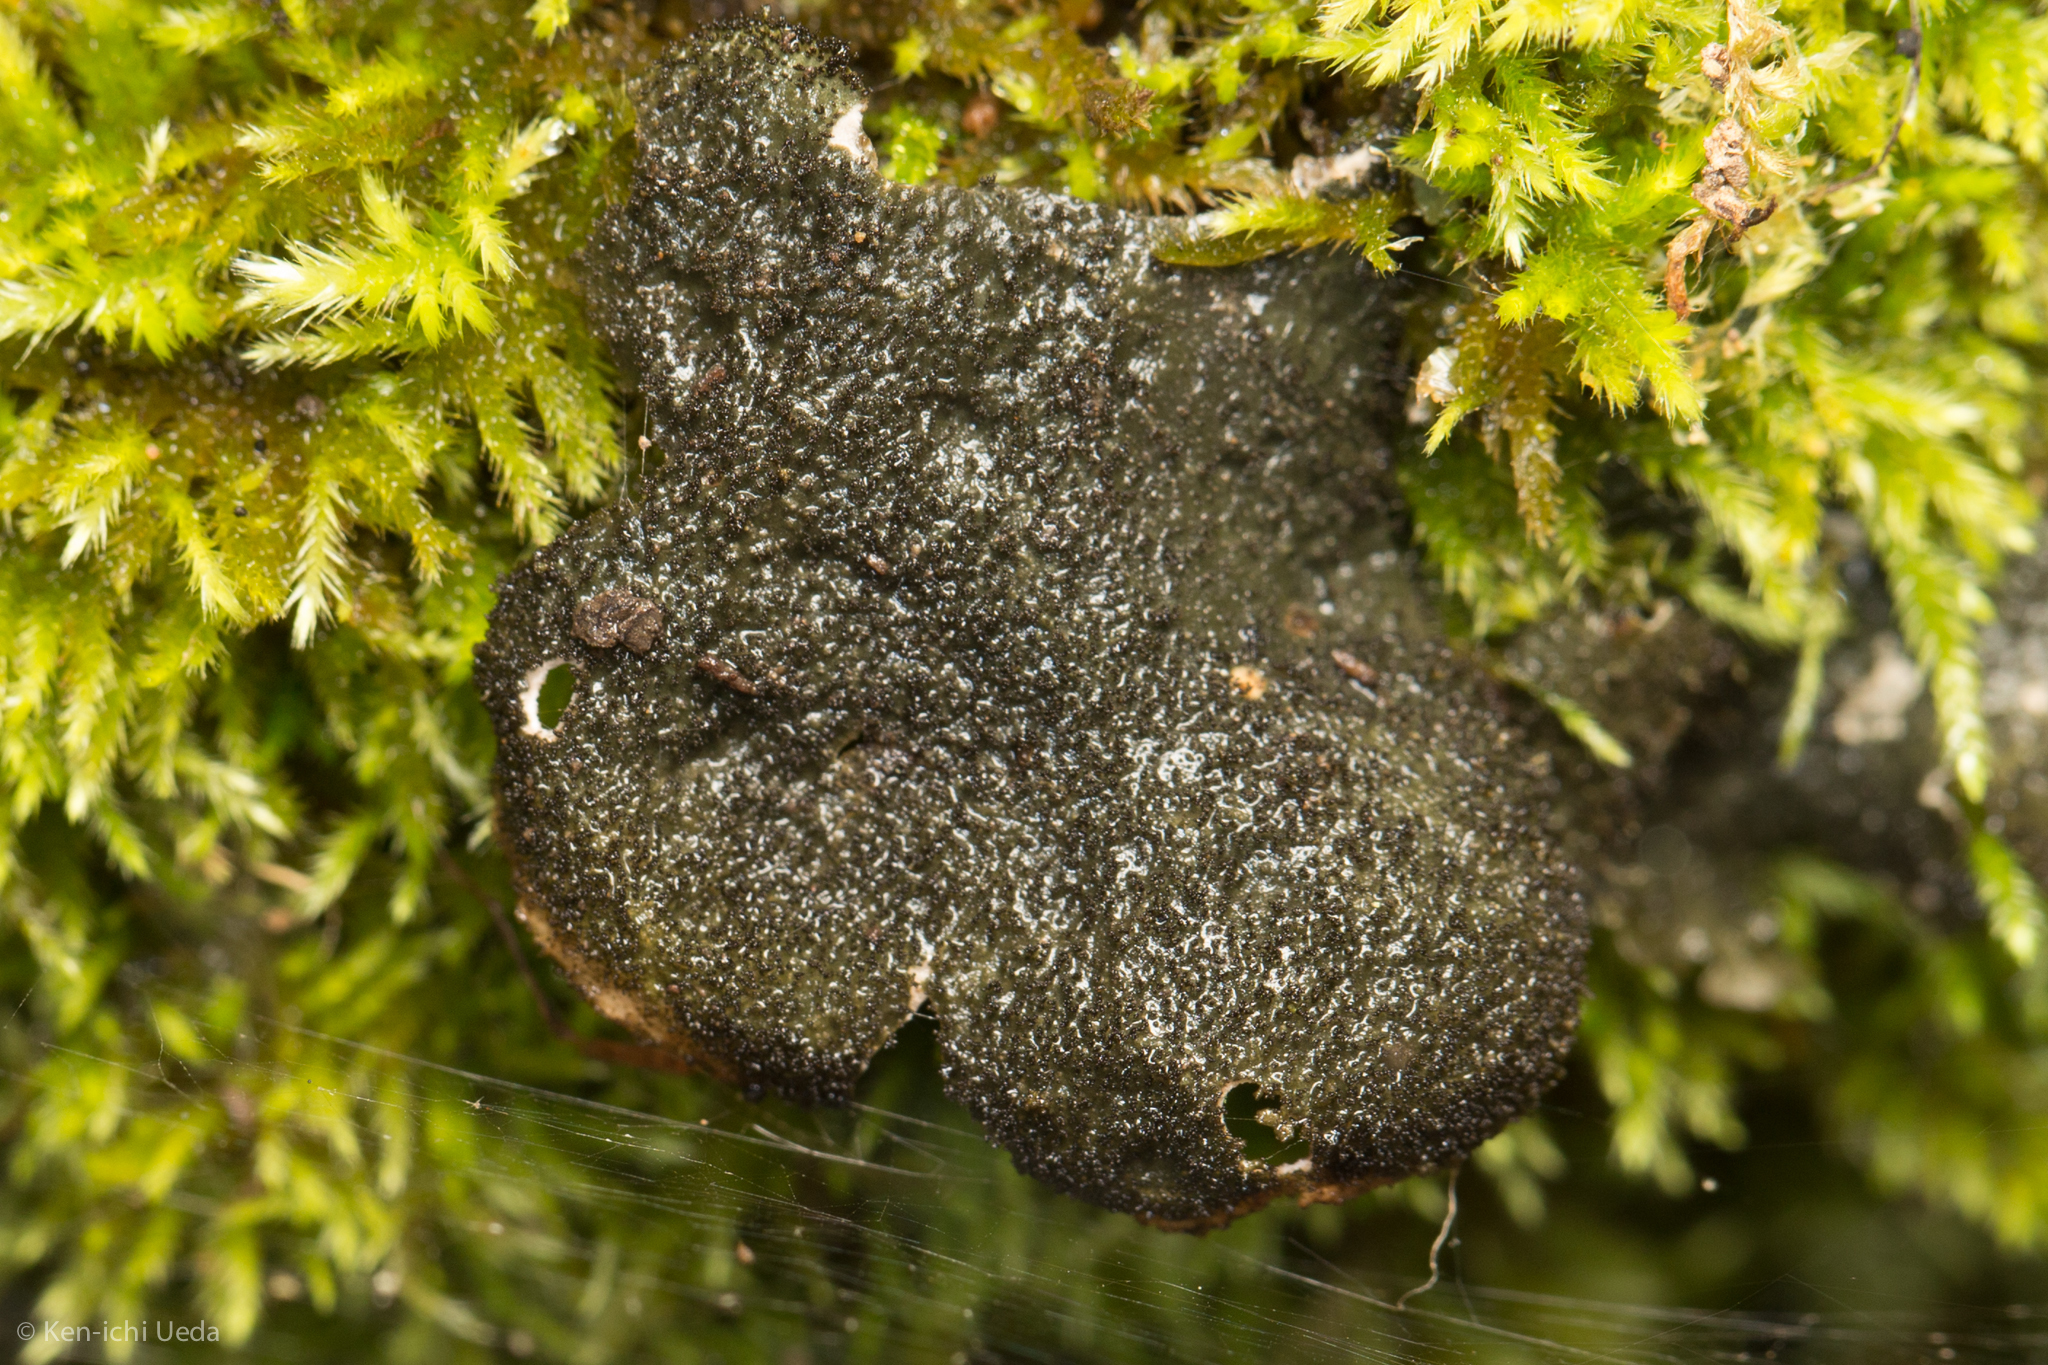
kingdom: Fungi
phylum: Ascomycota
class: Lecanoromycetes
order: Peltigerales
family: Lobariaceae
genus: Sticta
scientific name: Sticta fuliginosa
